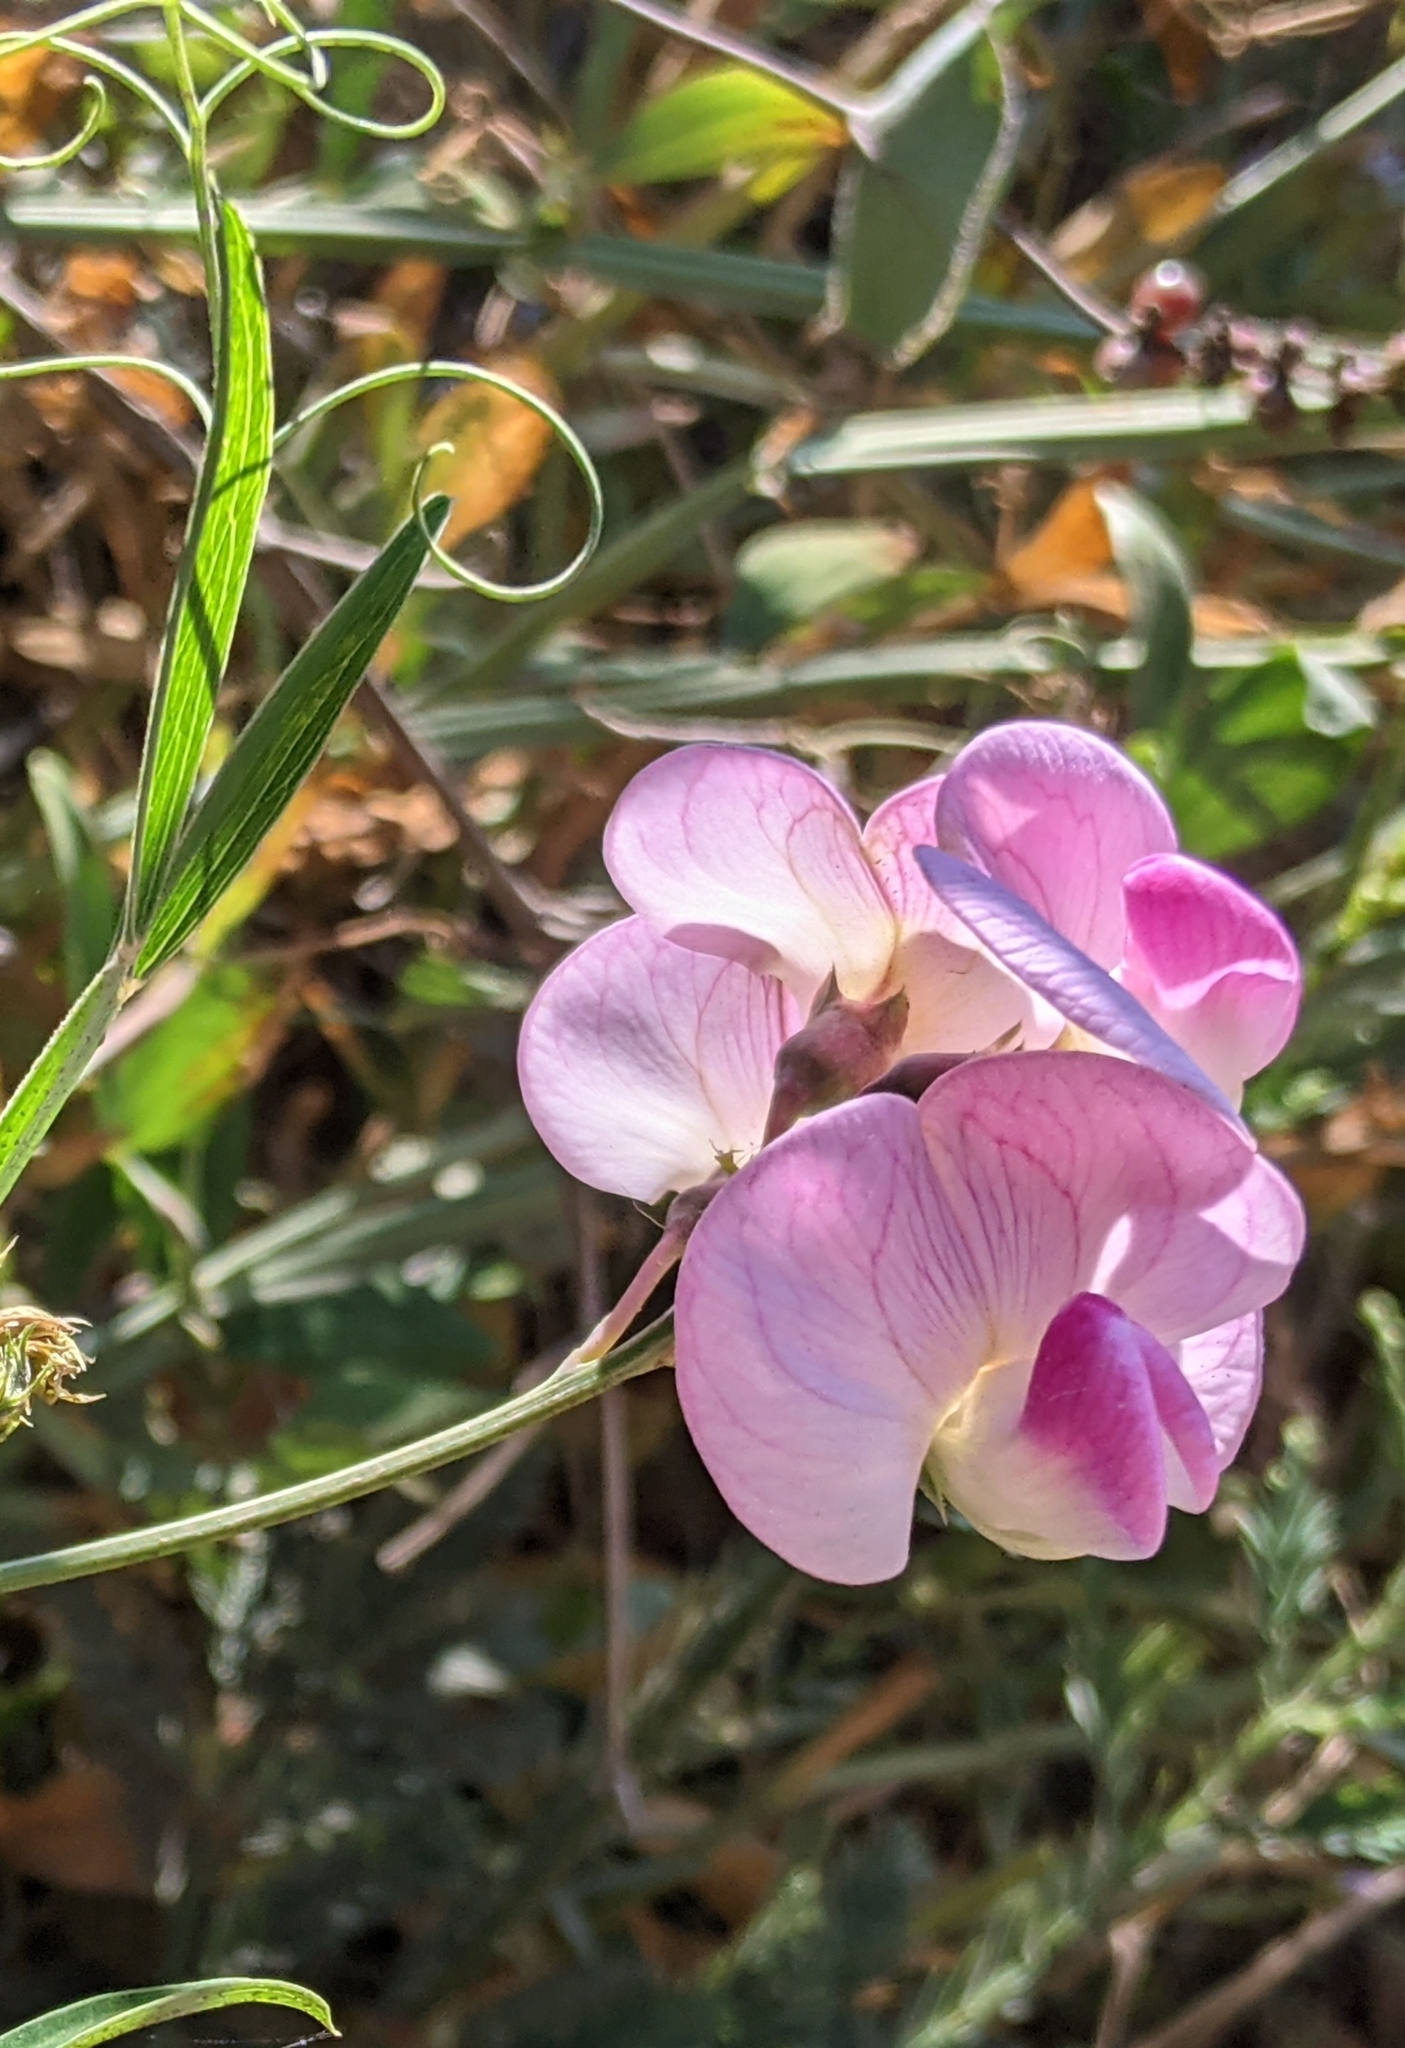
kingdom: Plantae
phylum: Tracheophyta
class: Magnoliopsida
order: Fabales
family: Fabaceae
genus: Lathyrus
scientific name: Lathyrus latifolius
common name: Perennial pea
